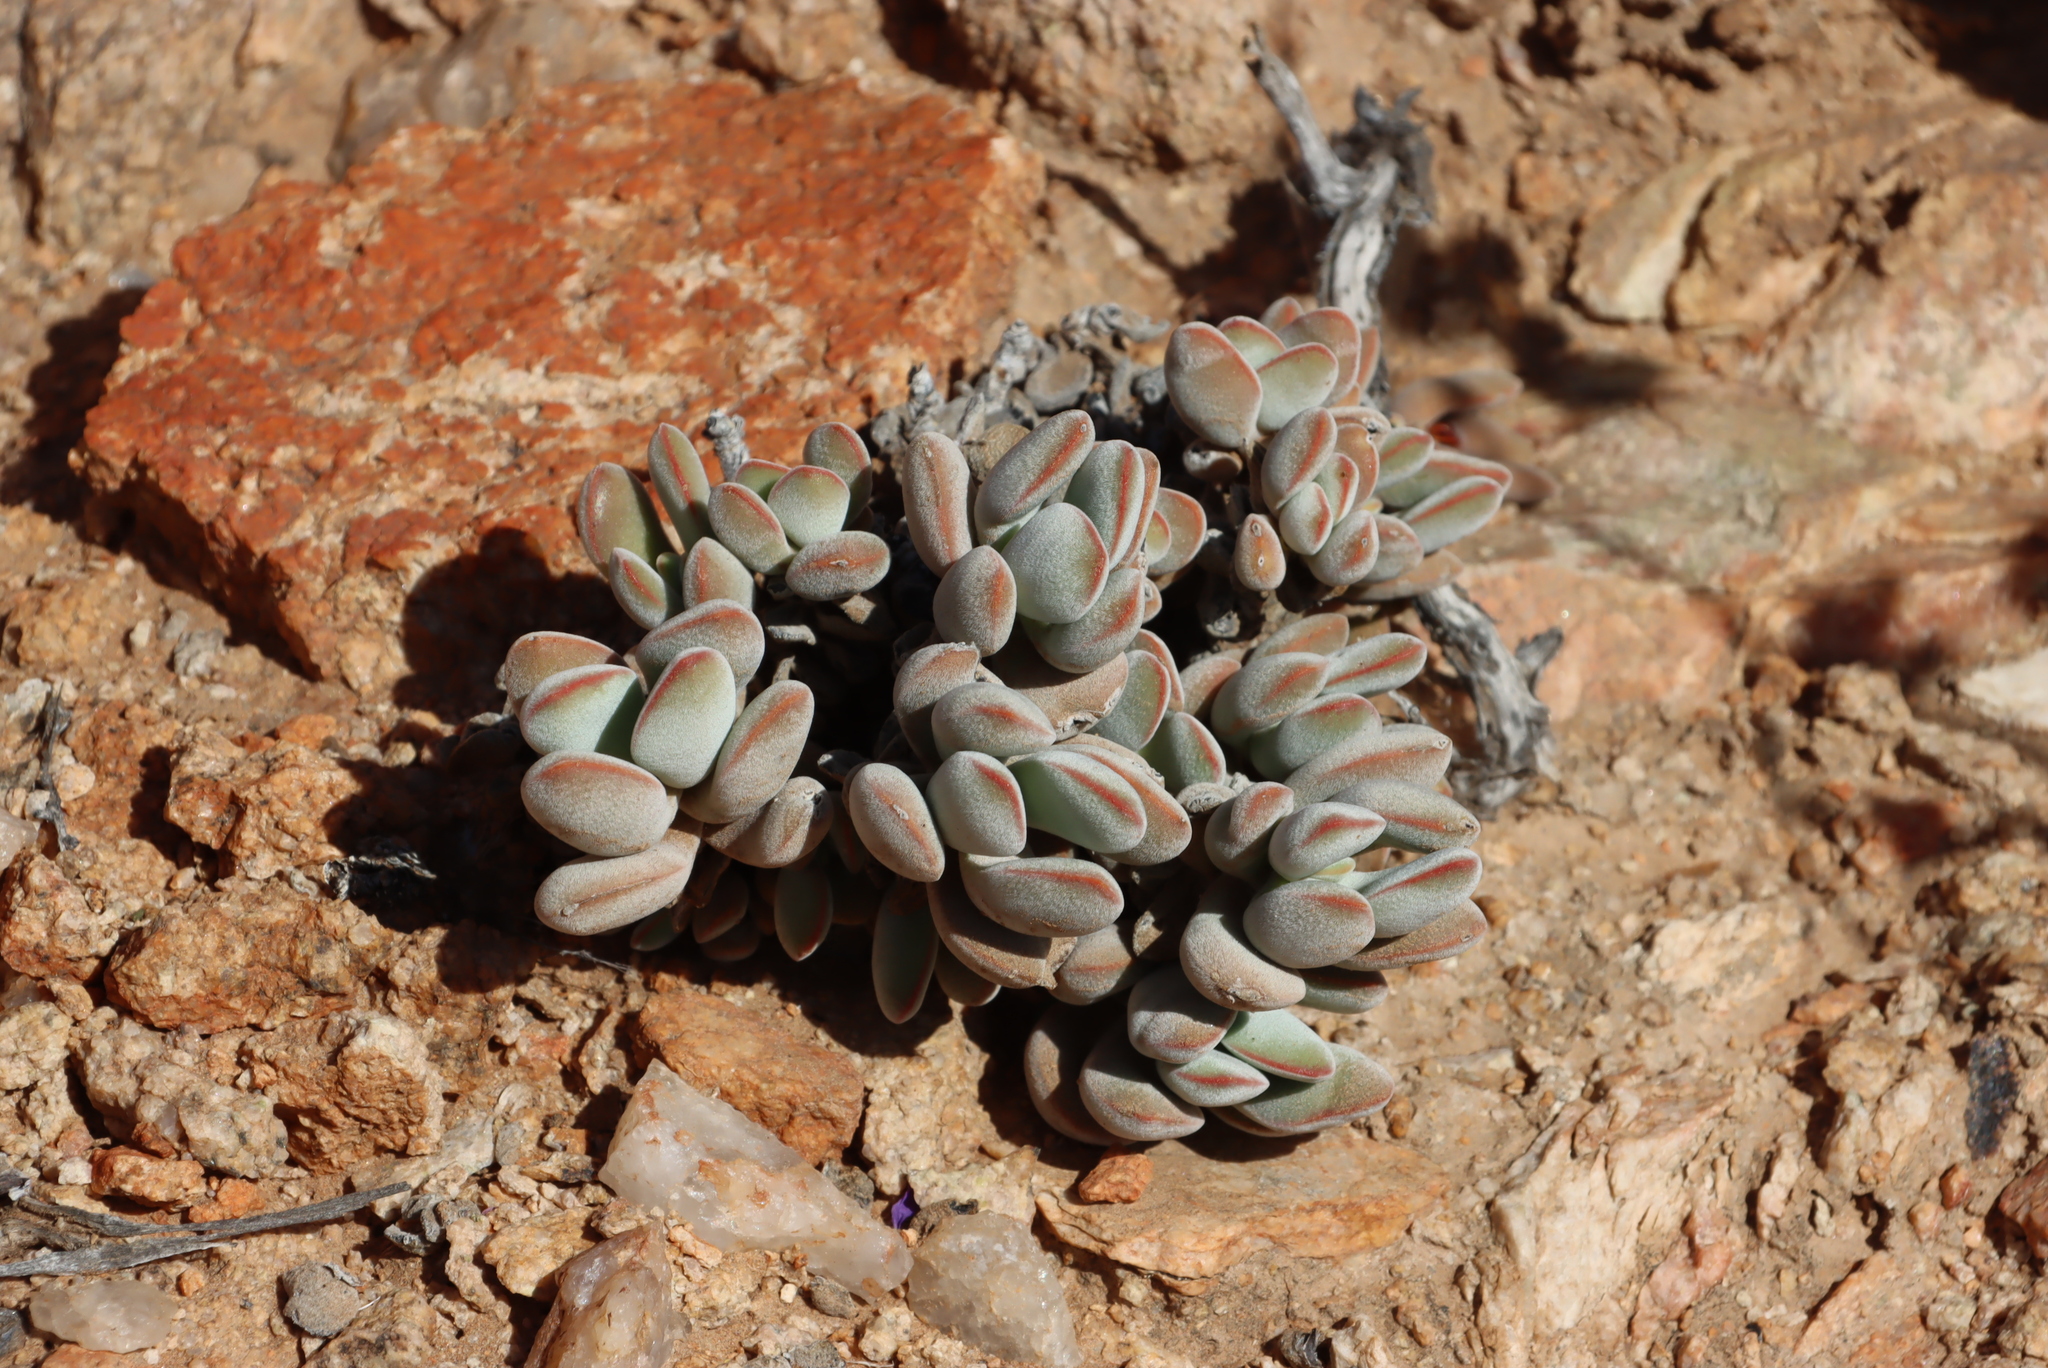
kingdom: Plantae
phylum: Tracheophyta
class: Magnoliopsida
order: Saxifragales
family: Crassulaceae
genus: Crassula
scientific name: Crassula sericea
